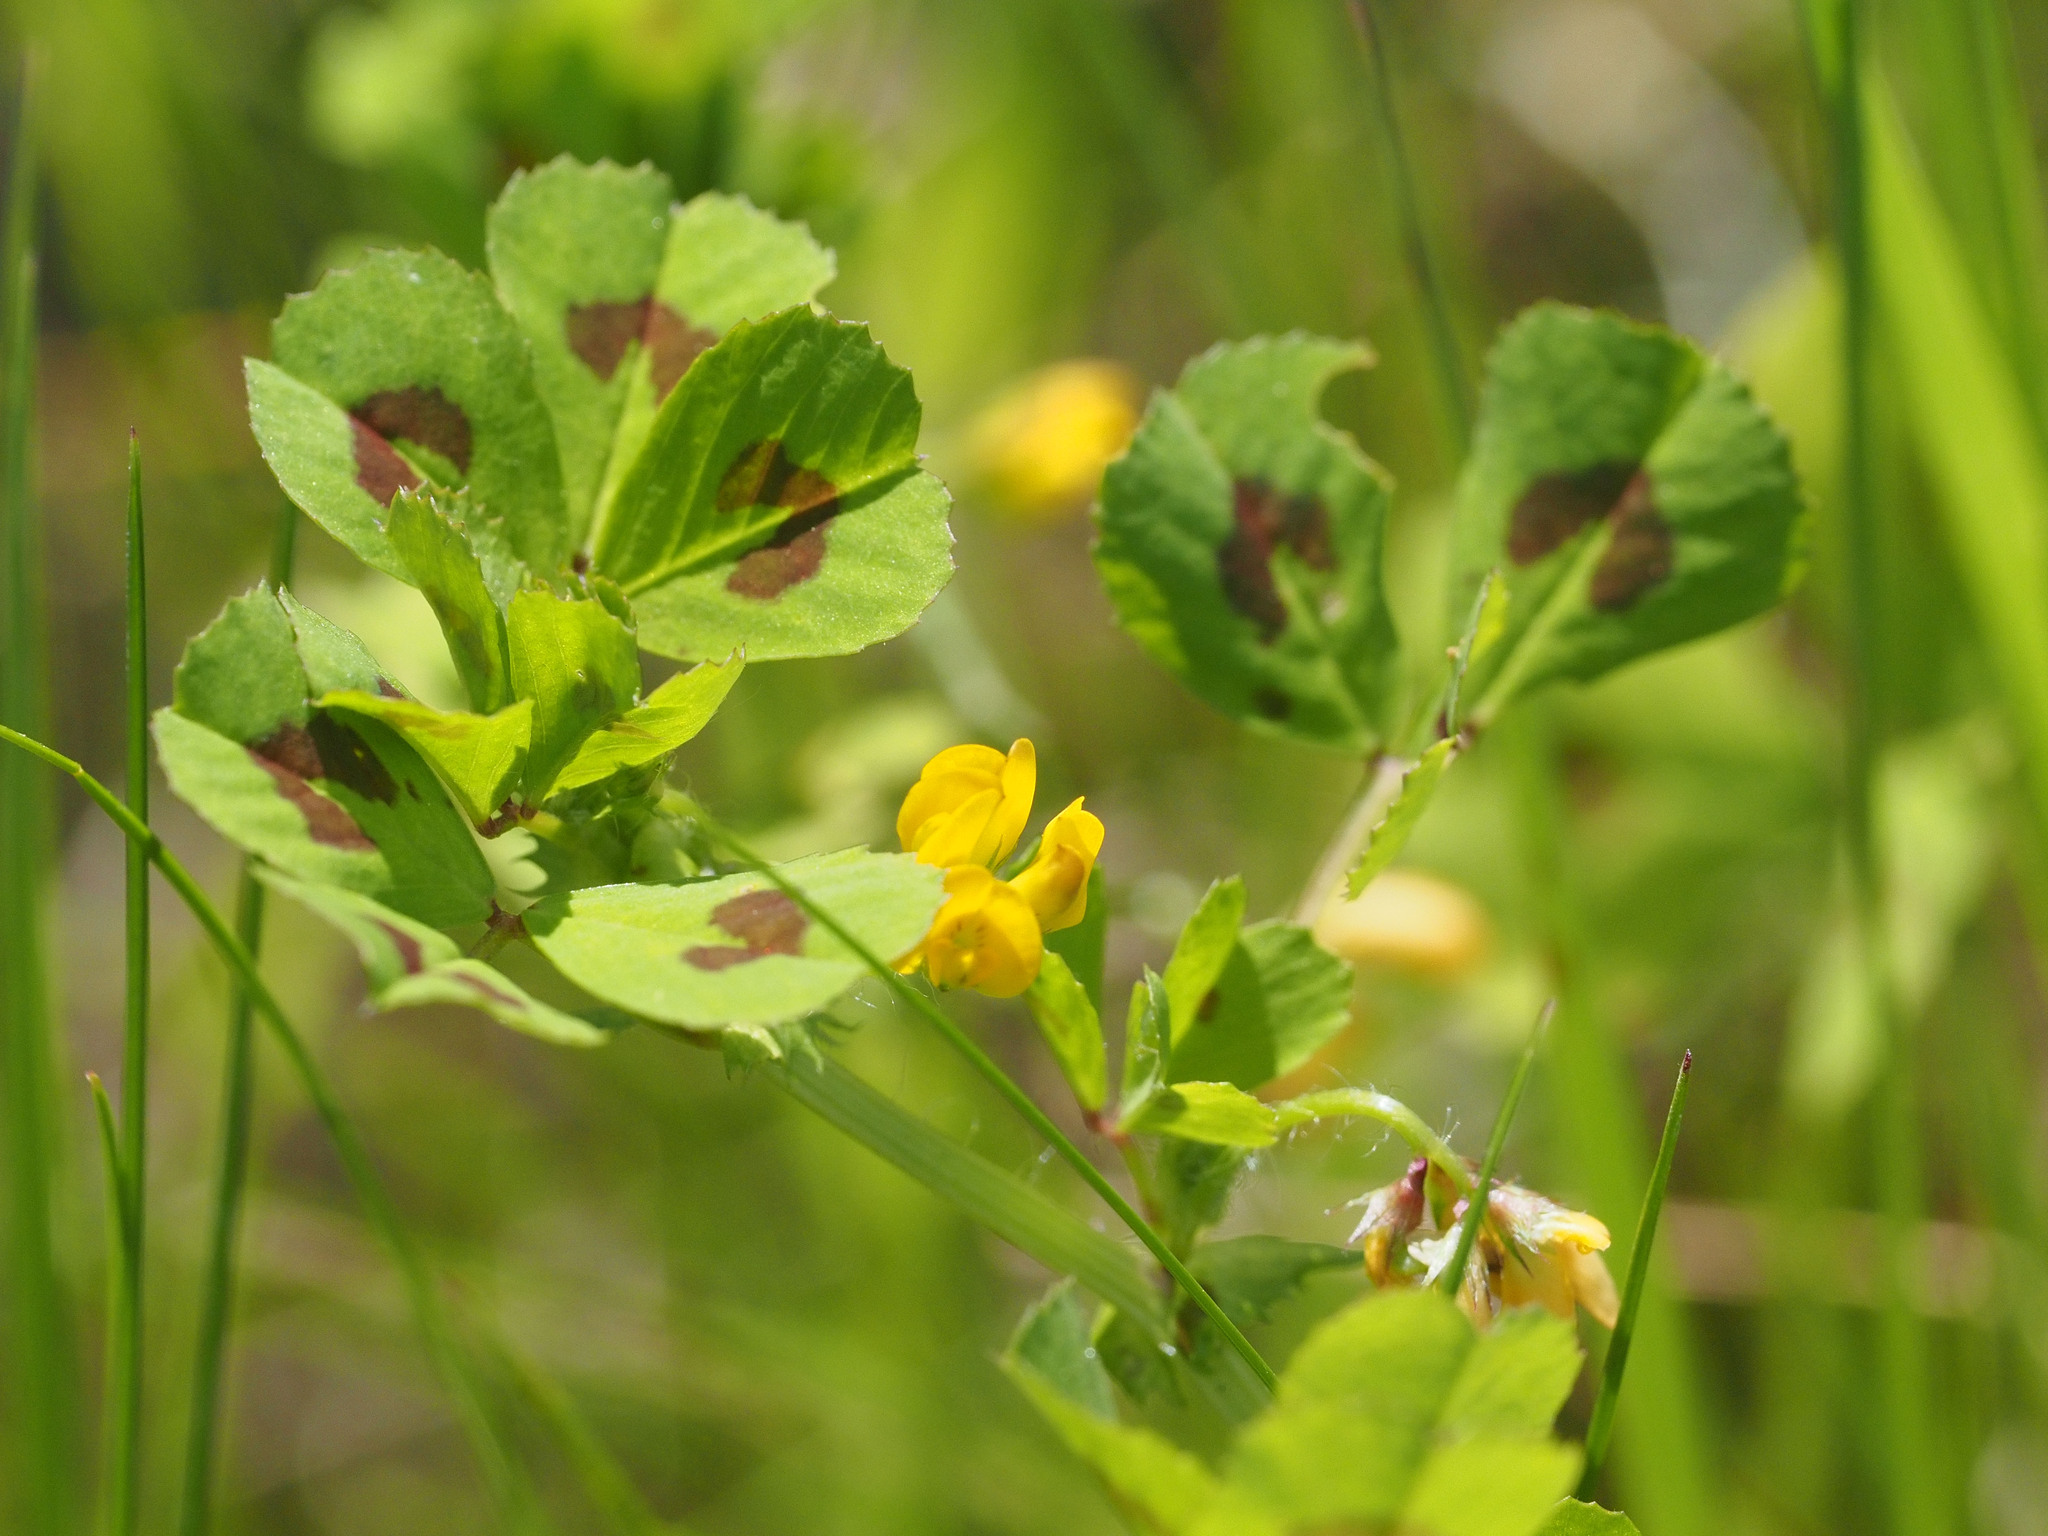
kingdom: Plantae
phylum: Tracheophyta
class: Magnoliopsida
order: Fabales
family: Fabaceae
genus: Medicago
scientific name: Medicago arabica
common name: Spotted medick
